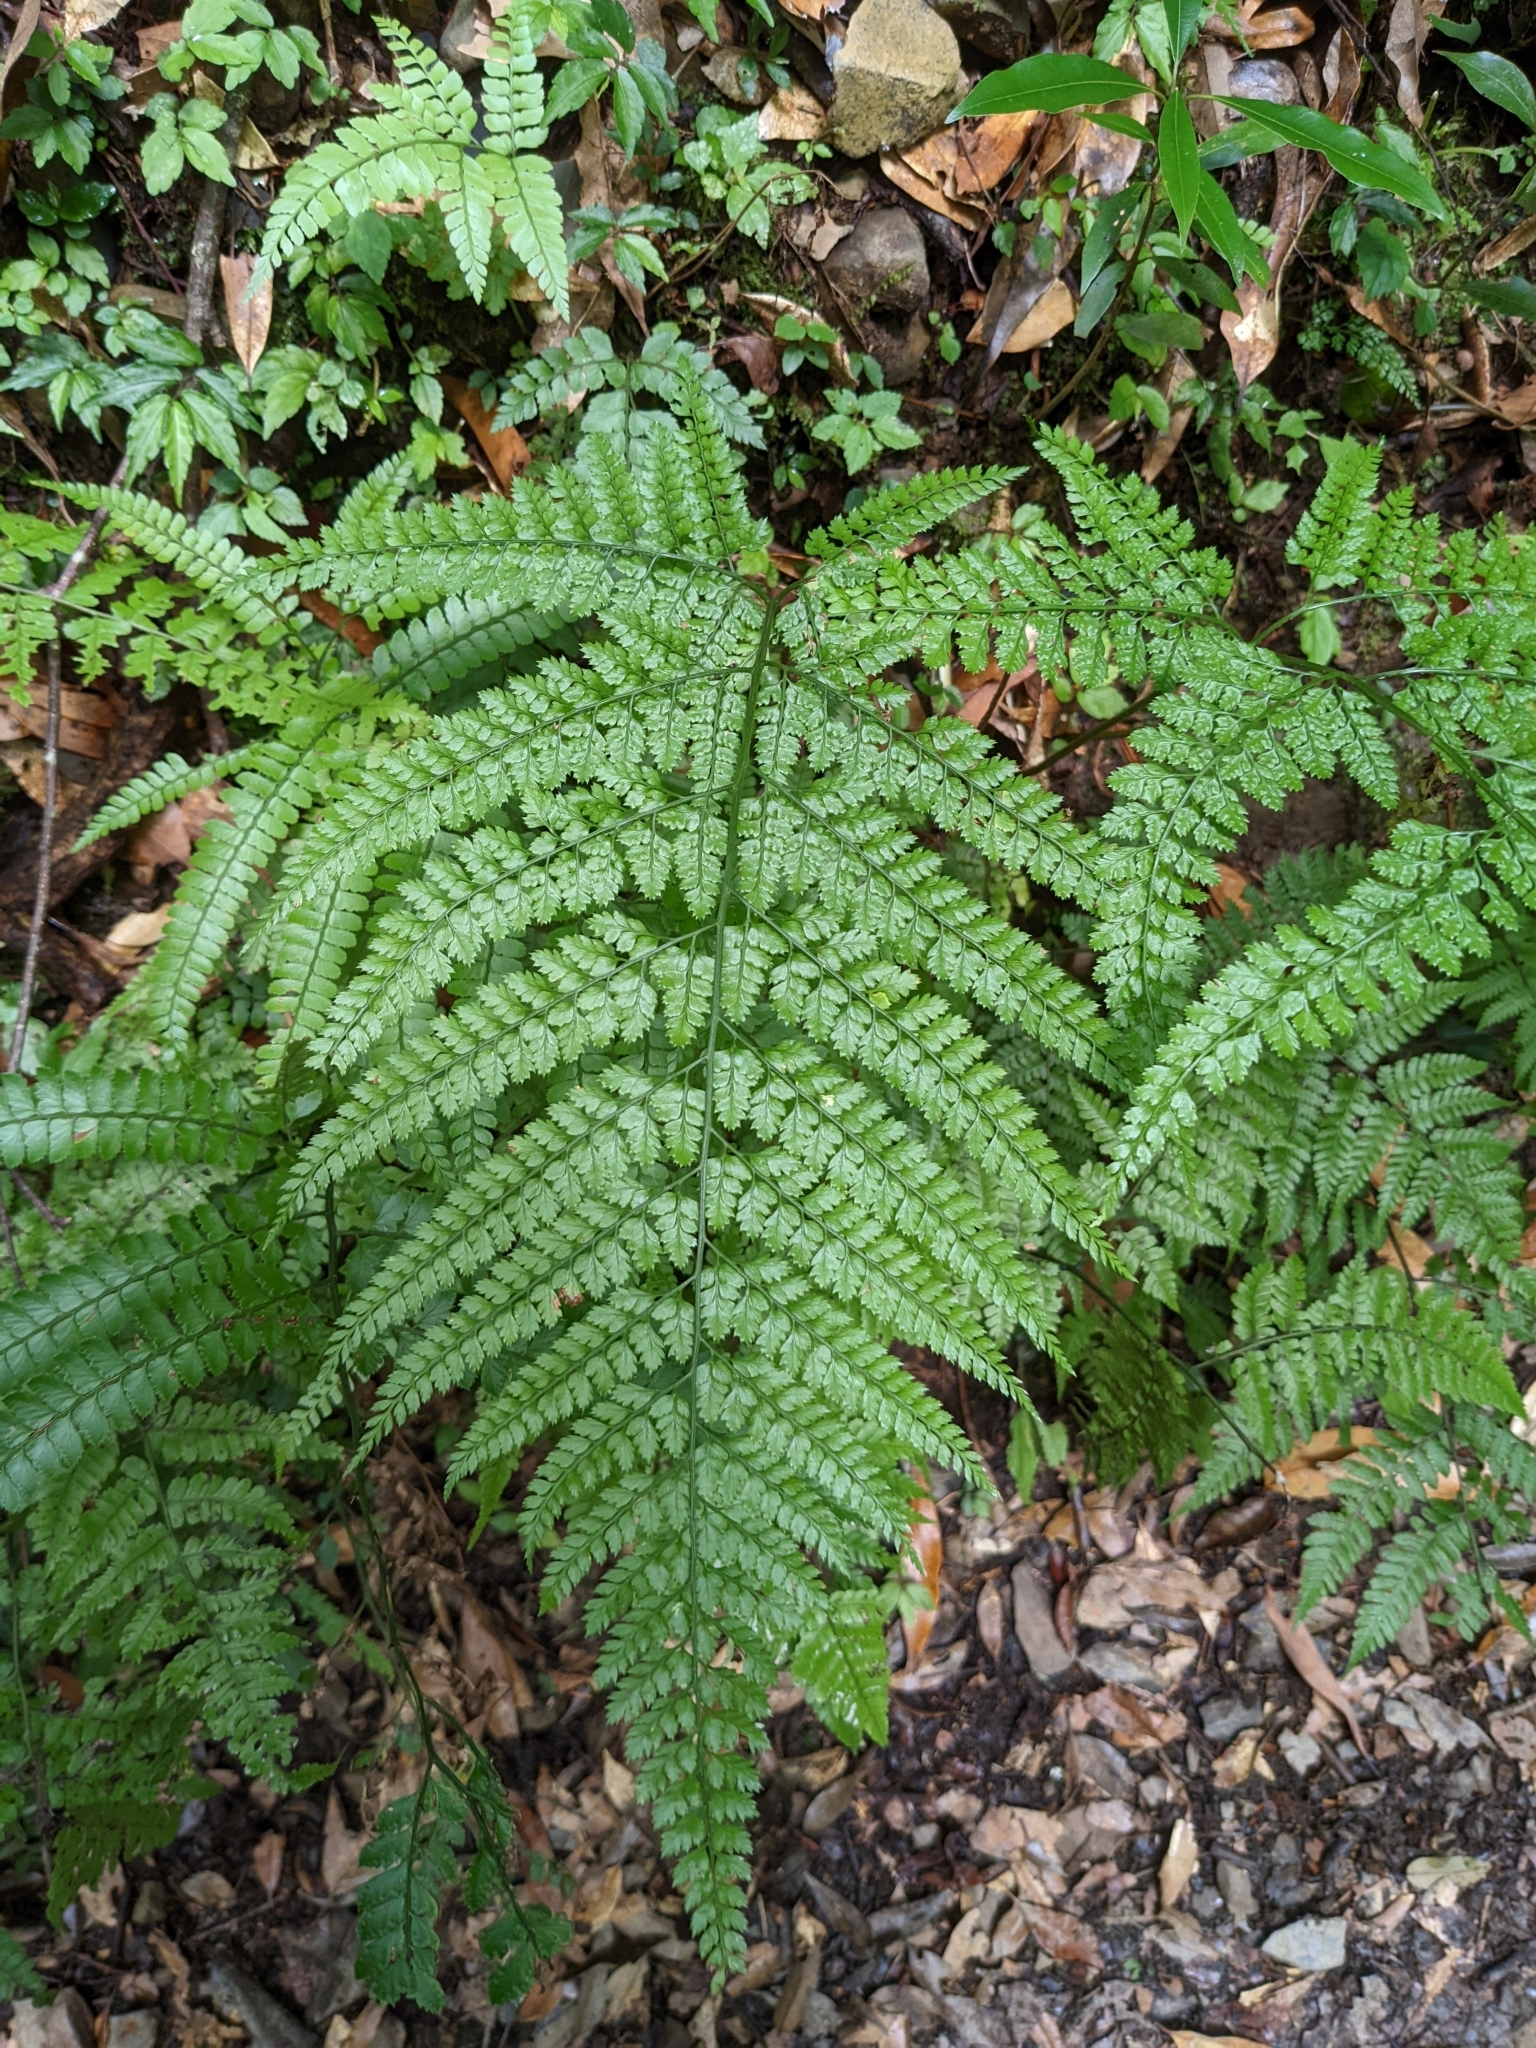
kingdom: Plantae
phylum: Tracheophyta
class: Polypodiopsida
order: Polypodiales
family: Dryopteridaceae
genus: Arachniodes
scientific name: Arachniodes festina
